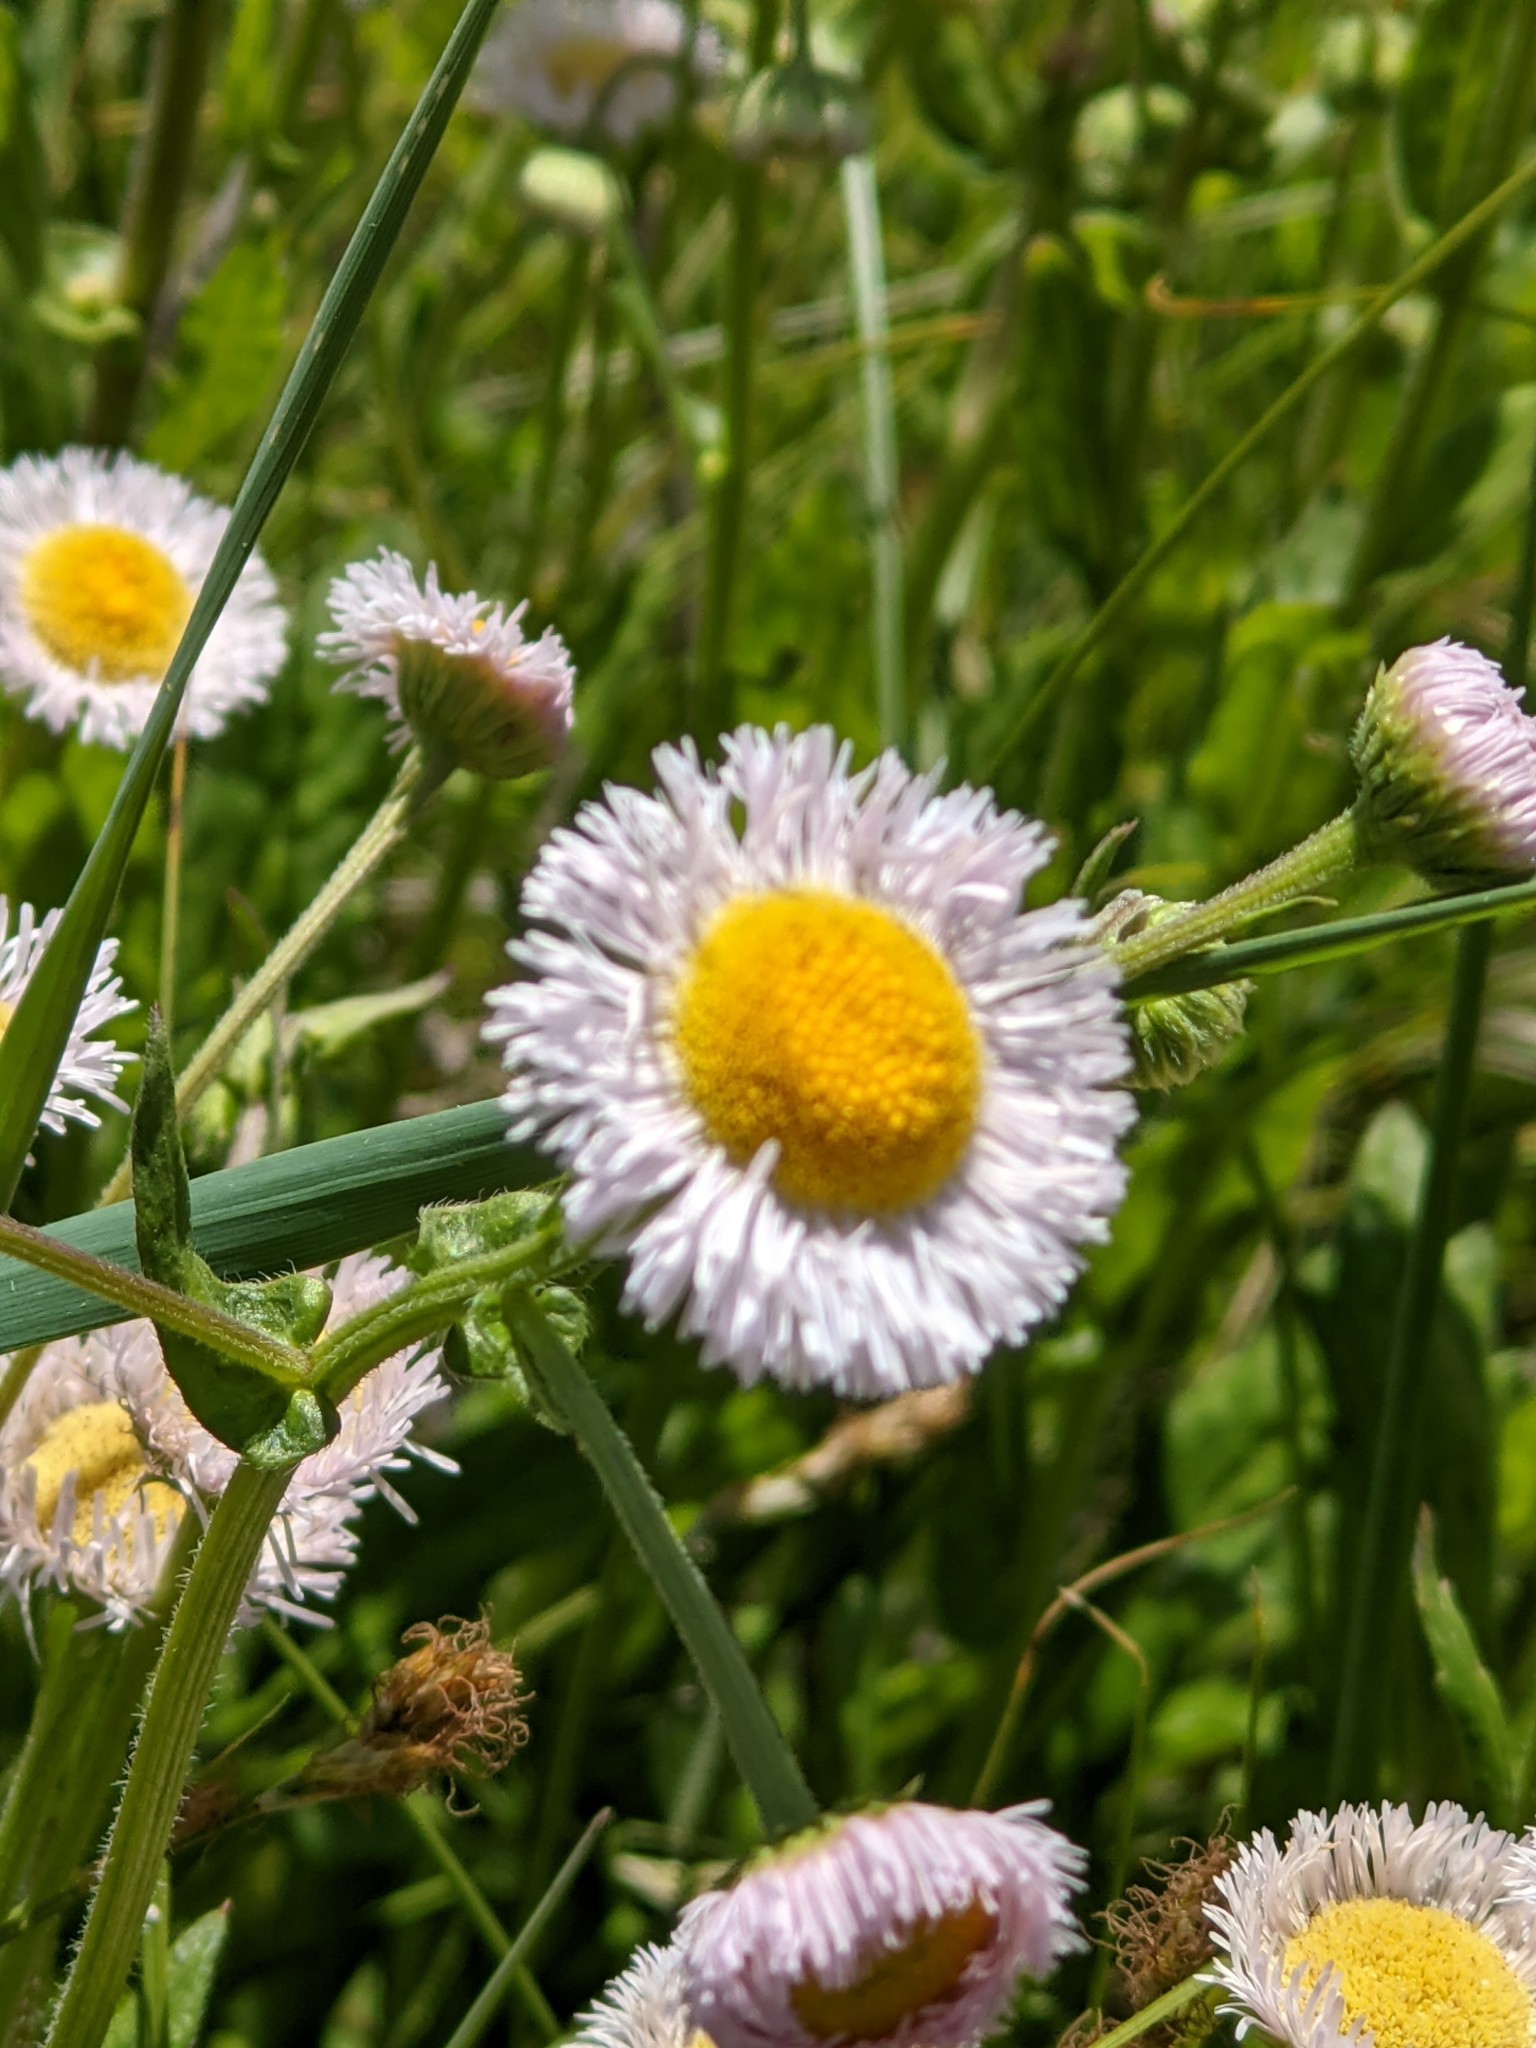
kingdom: Plantae
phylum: Tracheophyta
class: Magnoliopsida
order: Asterales
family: Asteraceae
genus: Erigeron
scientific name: Erigeron philadelphicus
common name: Robin's-plantain
